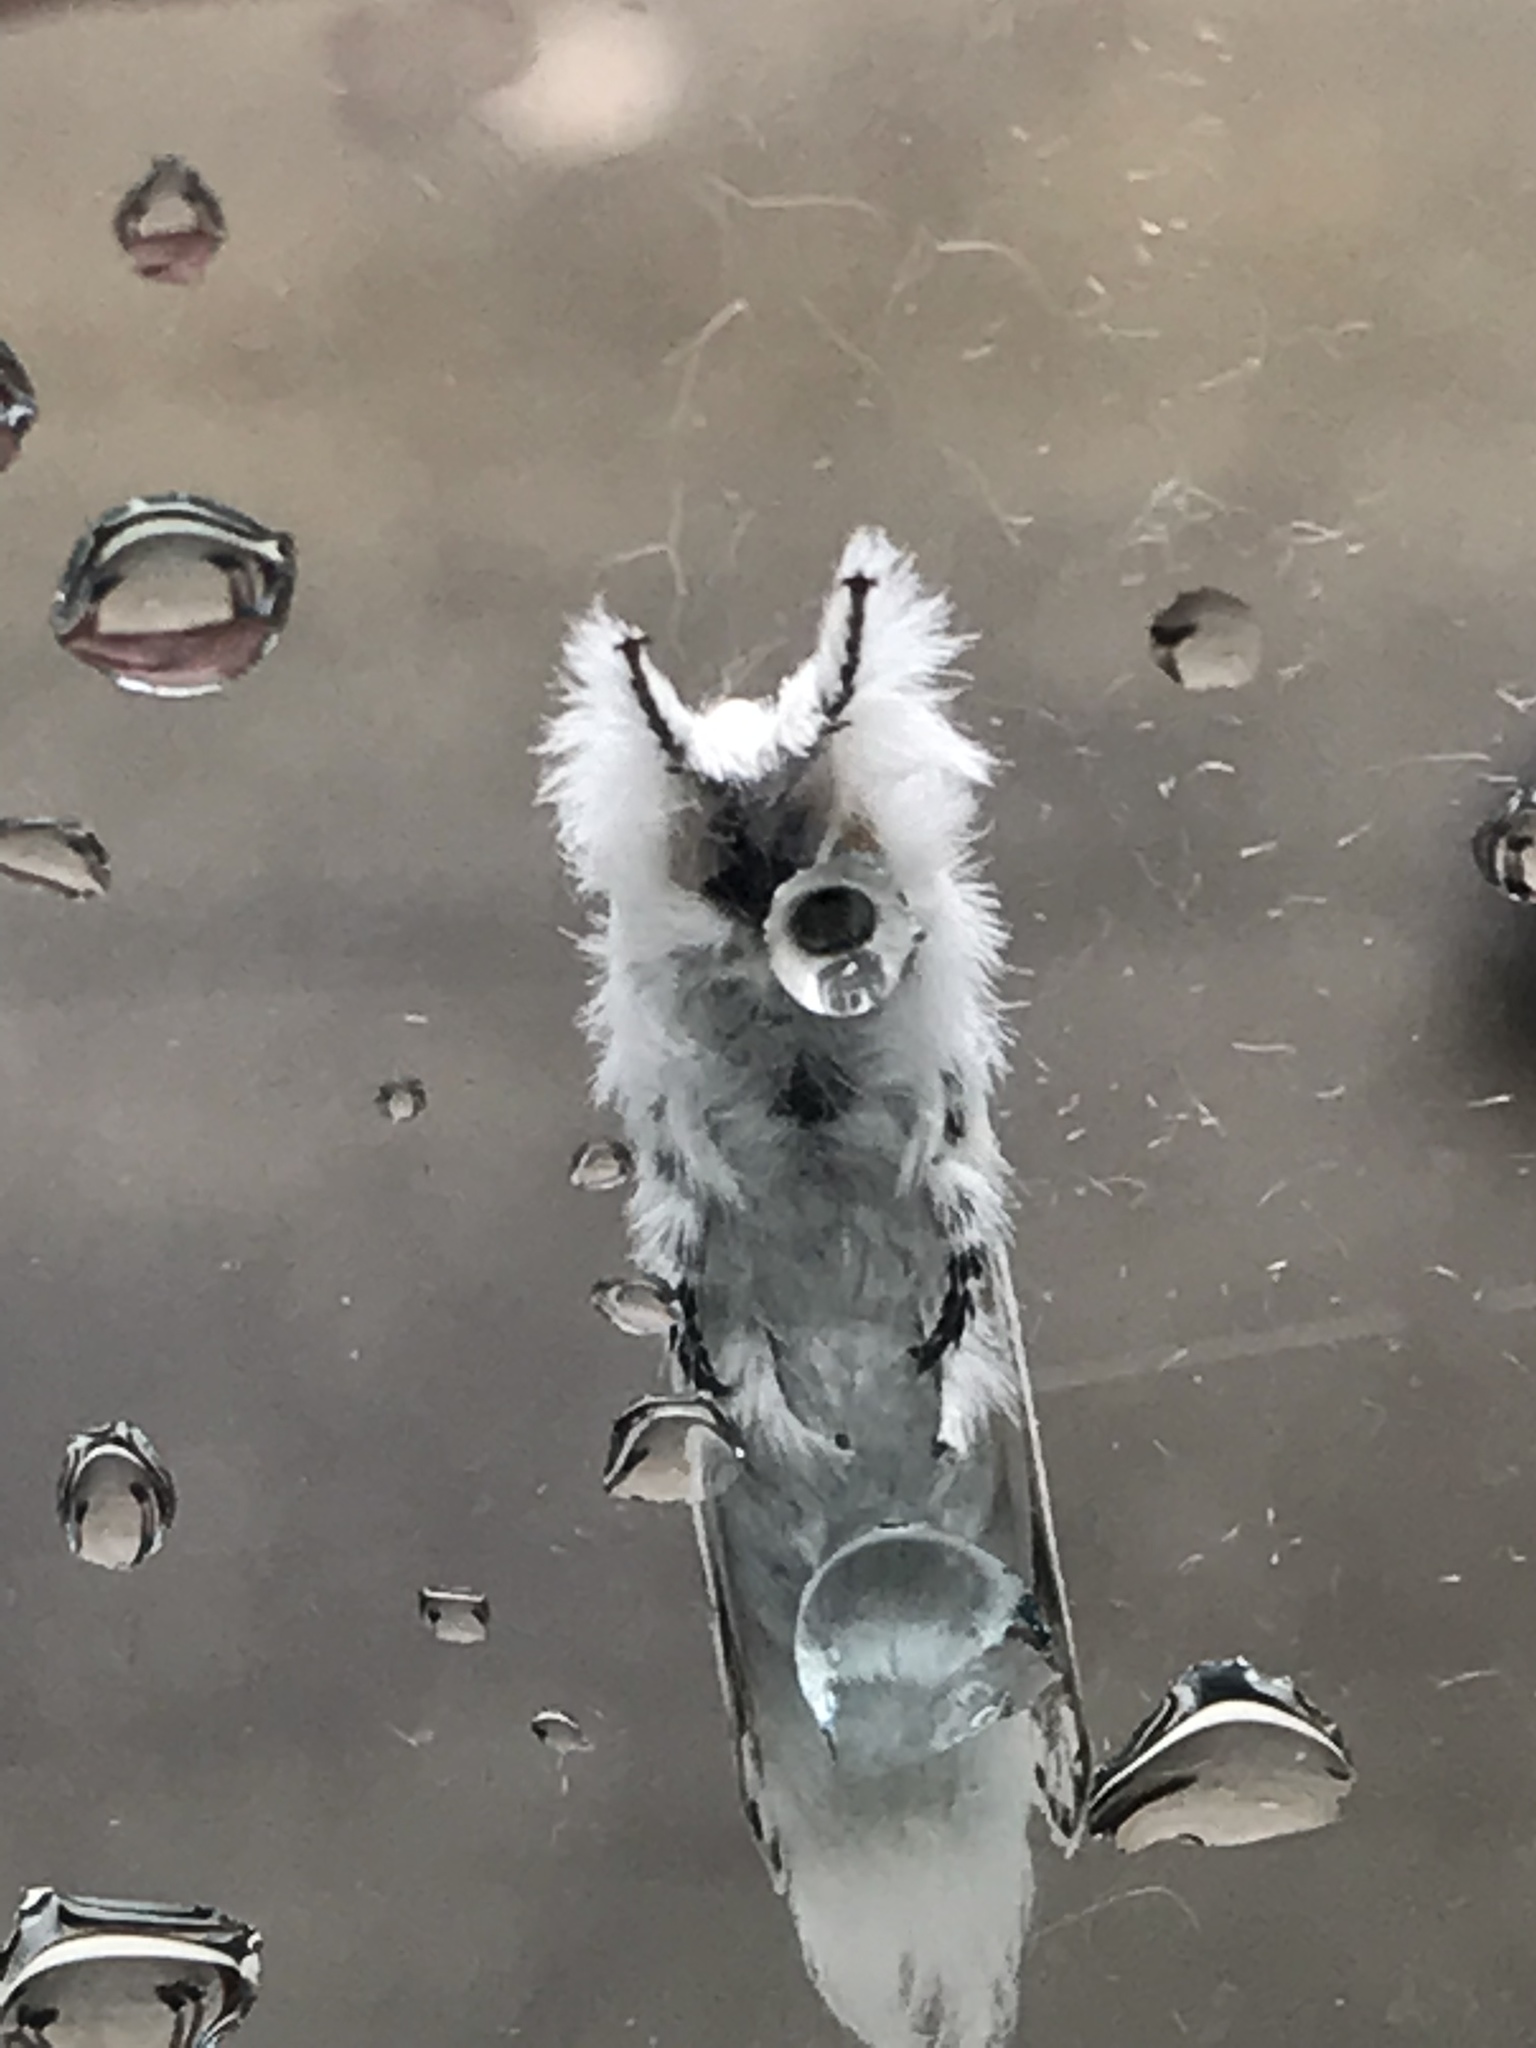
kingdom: Animalia
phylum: Arthropoda
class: Insecta
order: Lepidoptera
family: Lasiocampidae
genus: Artace
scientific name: Artace cribrarius
